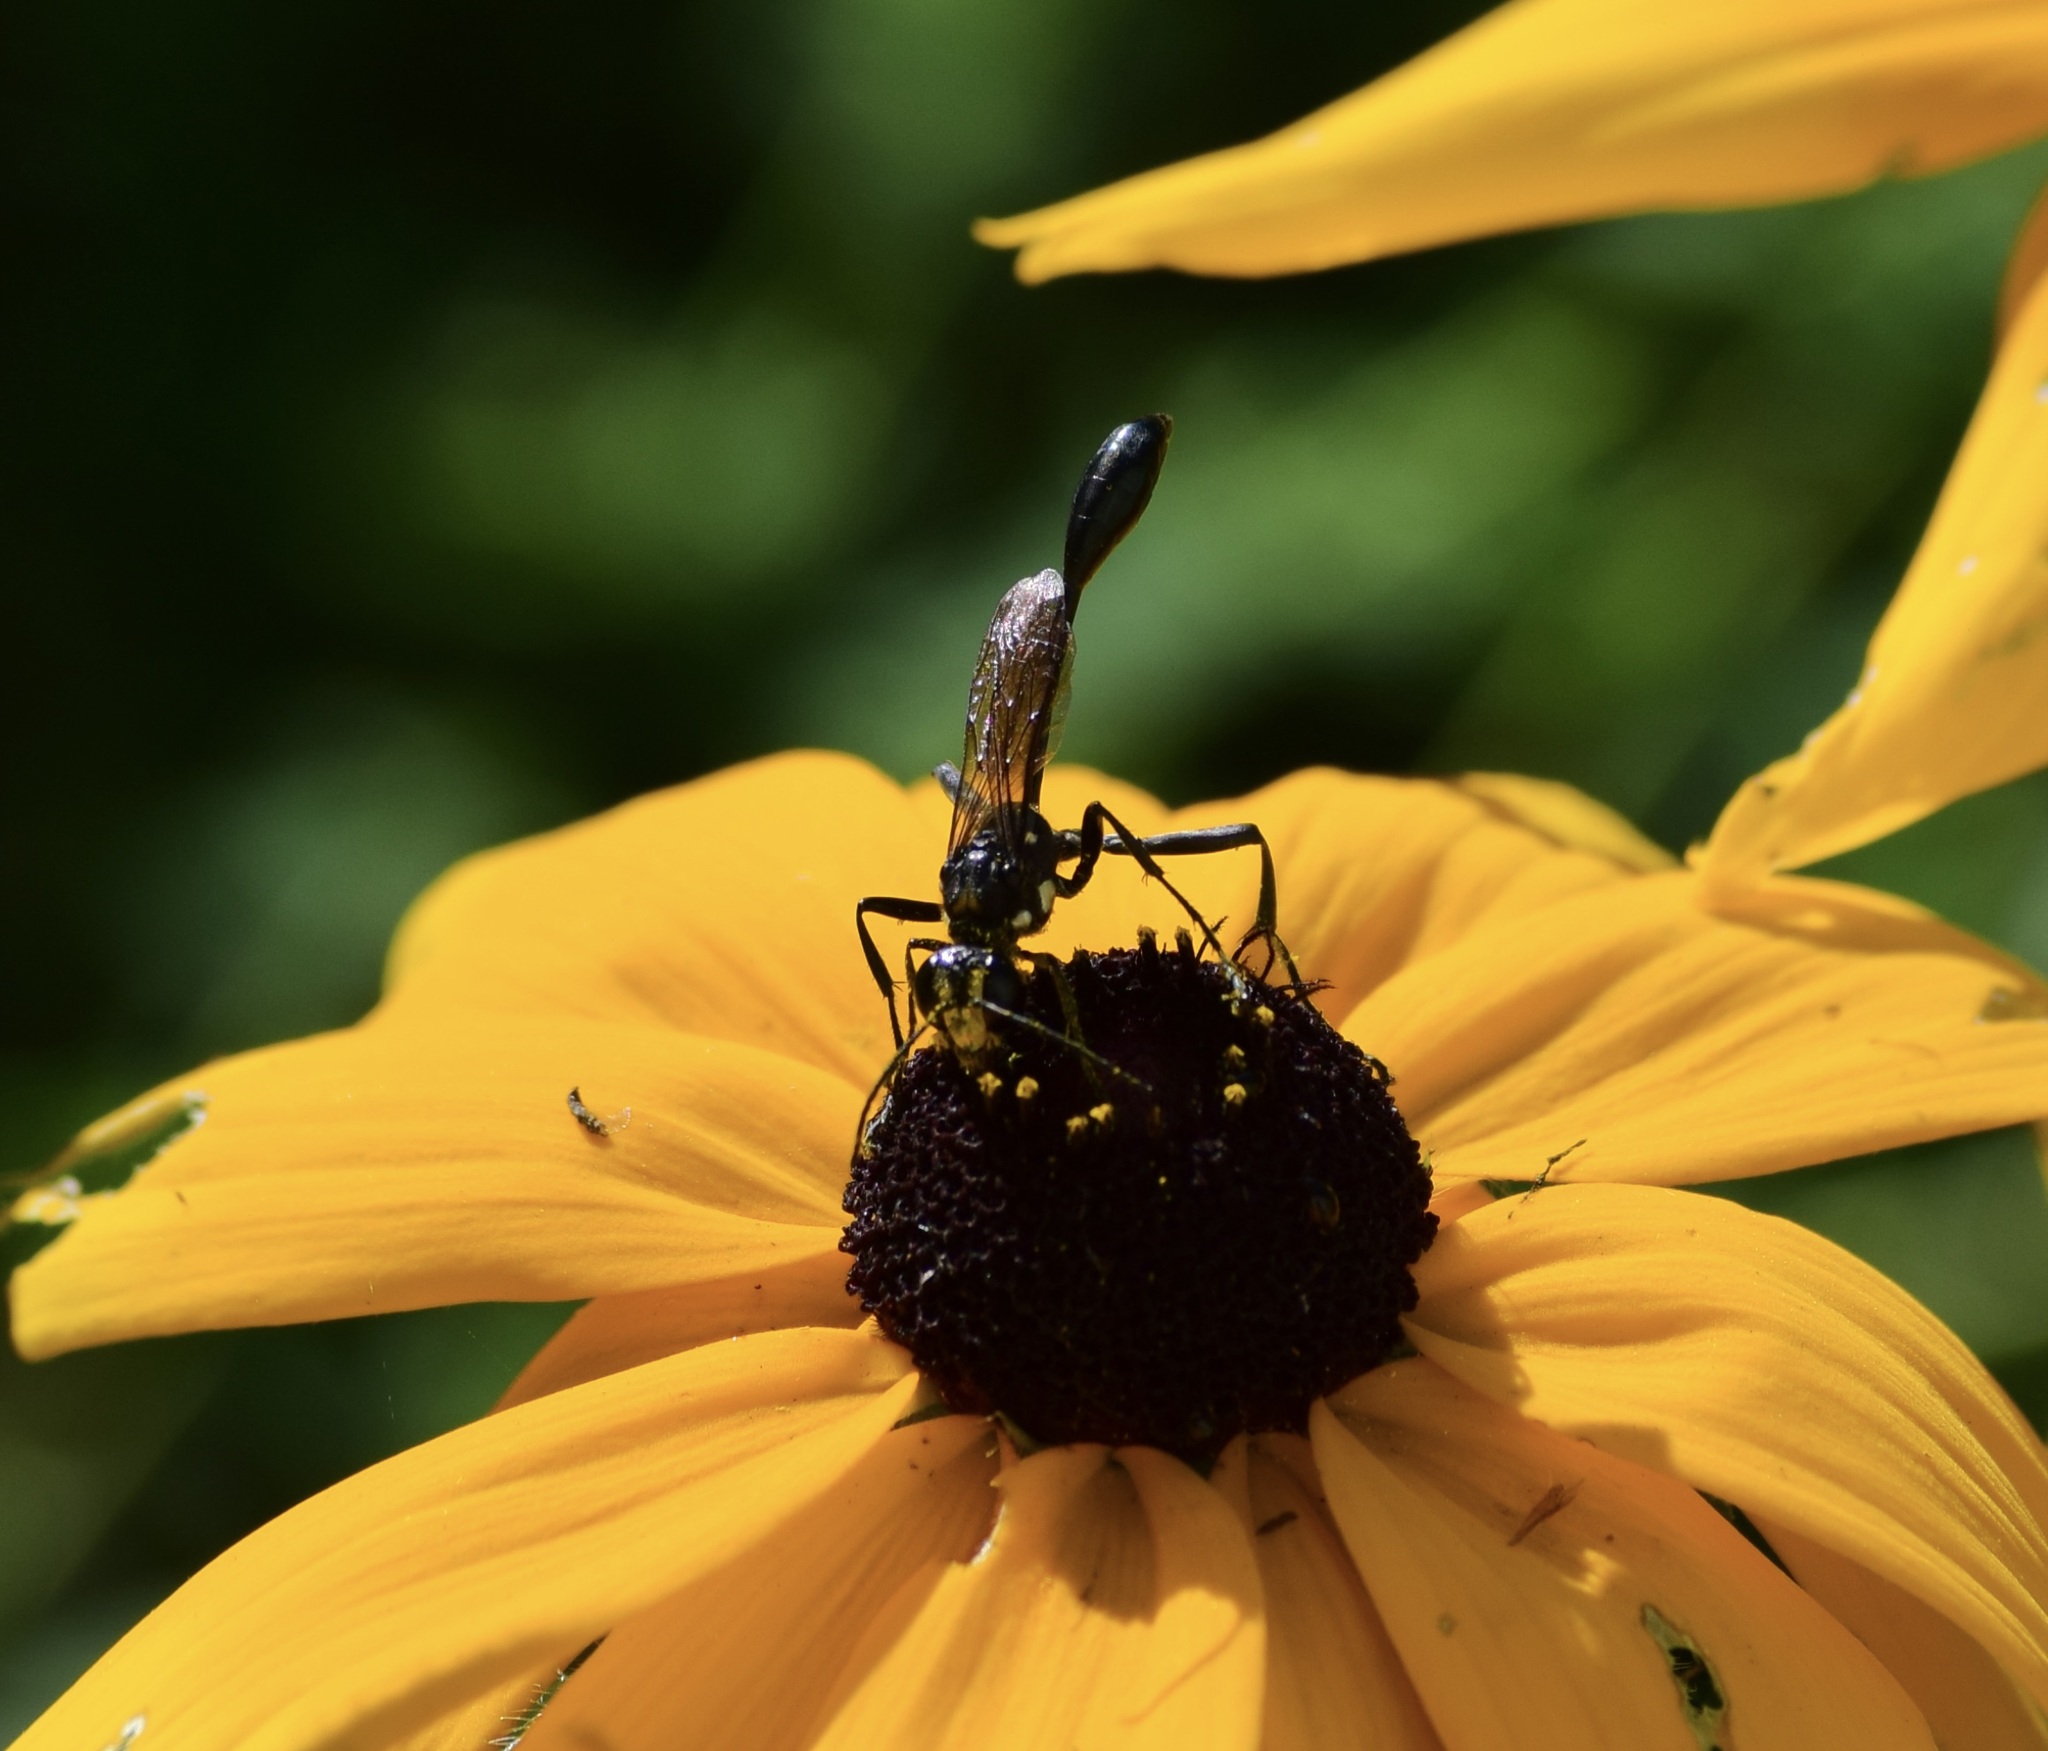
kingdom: Animalia
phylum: Arthropoda
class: Insecta
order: Hymenoptera
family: Sphecidae
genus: Eremnophila
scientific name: Eremnophila aureonotata
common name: Gold-marked thread-waisted wasp
